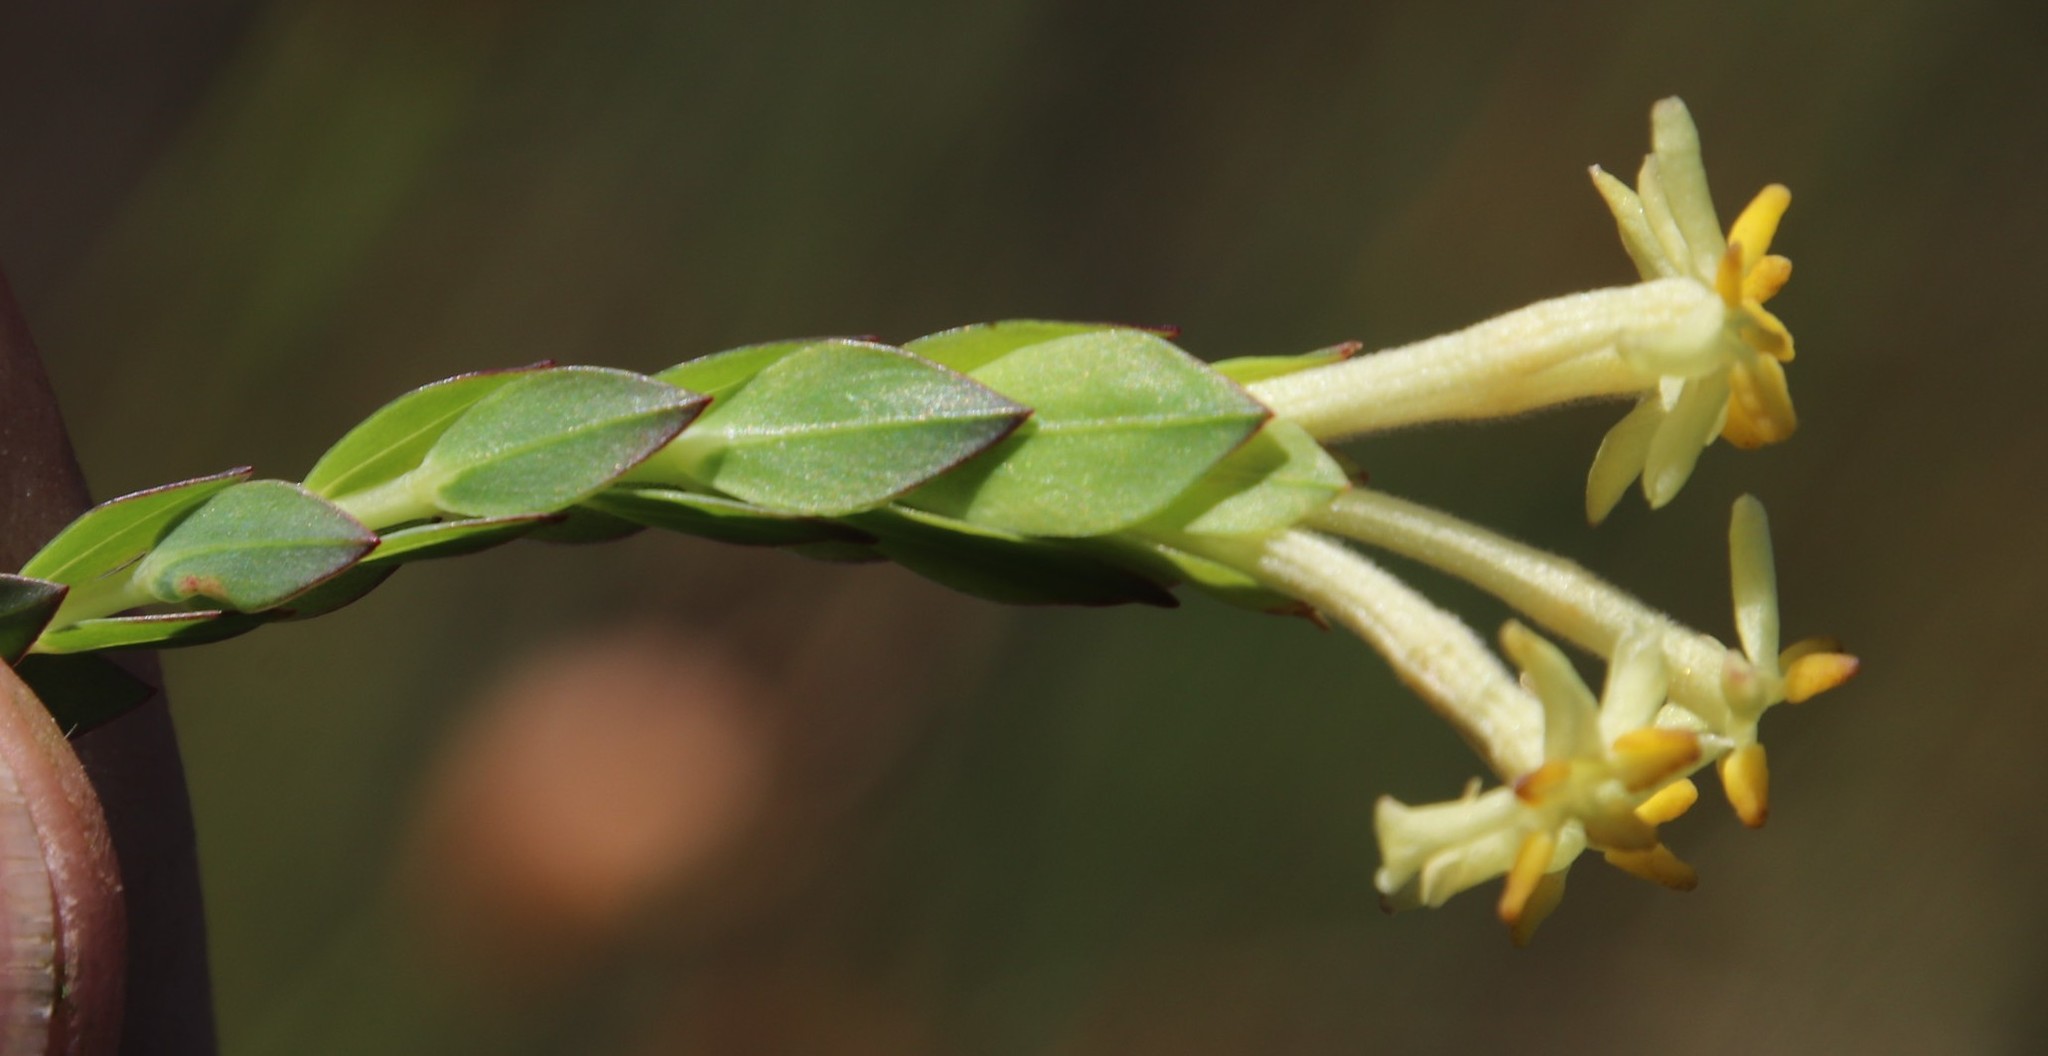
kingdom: Plantae
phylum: Tracheophyta
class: Magnoliopsida
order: Malvales
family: Thymelaeaceae
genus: Gnidia
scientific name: Gnidia oppositifolia
